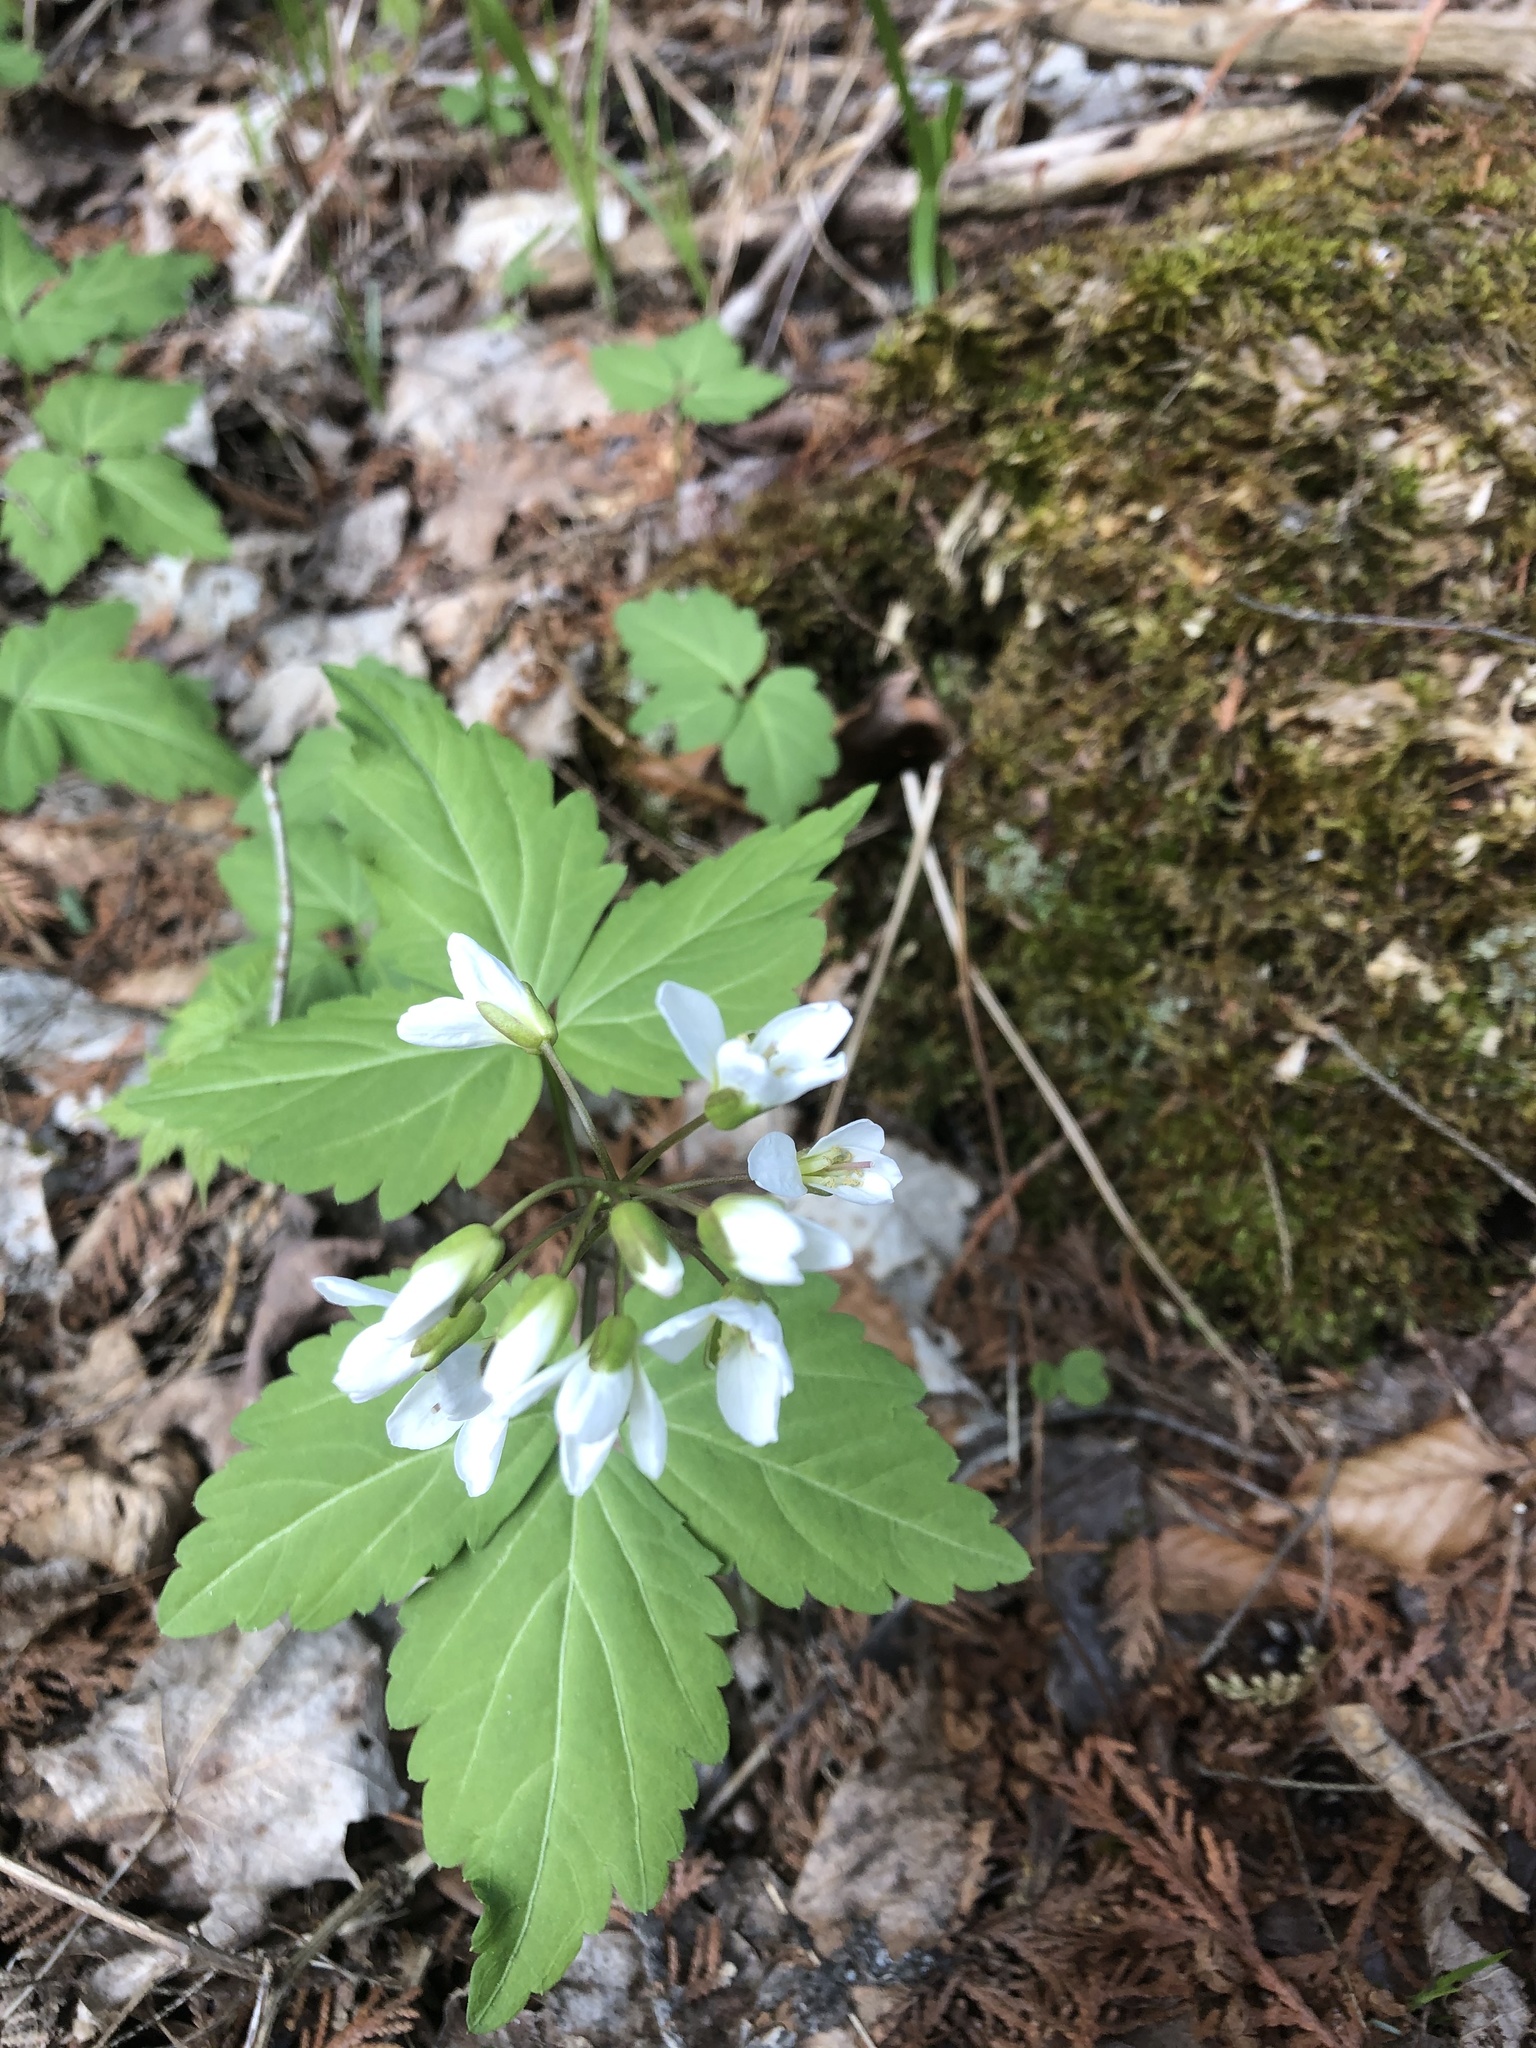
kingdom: Plantae
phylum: Tracheophyta
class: Magnoliopsida
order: Brassicales
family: Brassicaceae
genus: Cardamine
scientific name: Cardamine diphylla
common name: Broad-leaved toothwort
